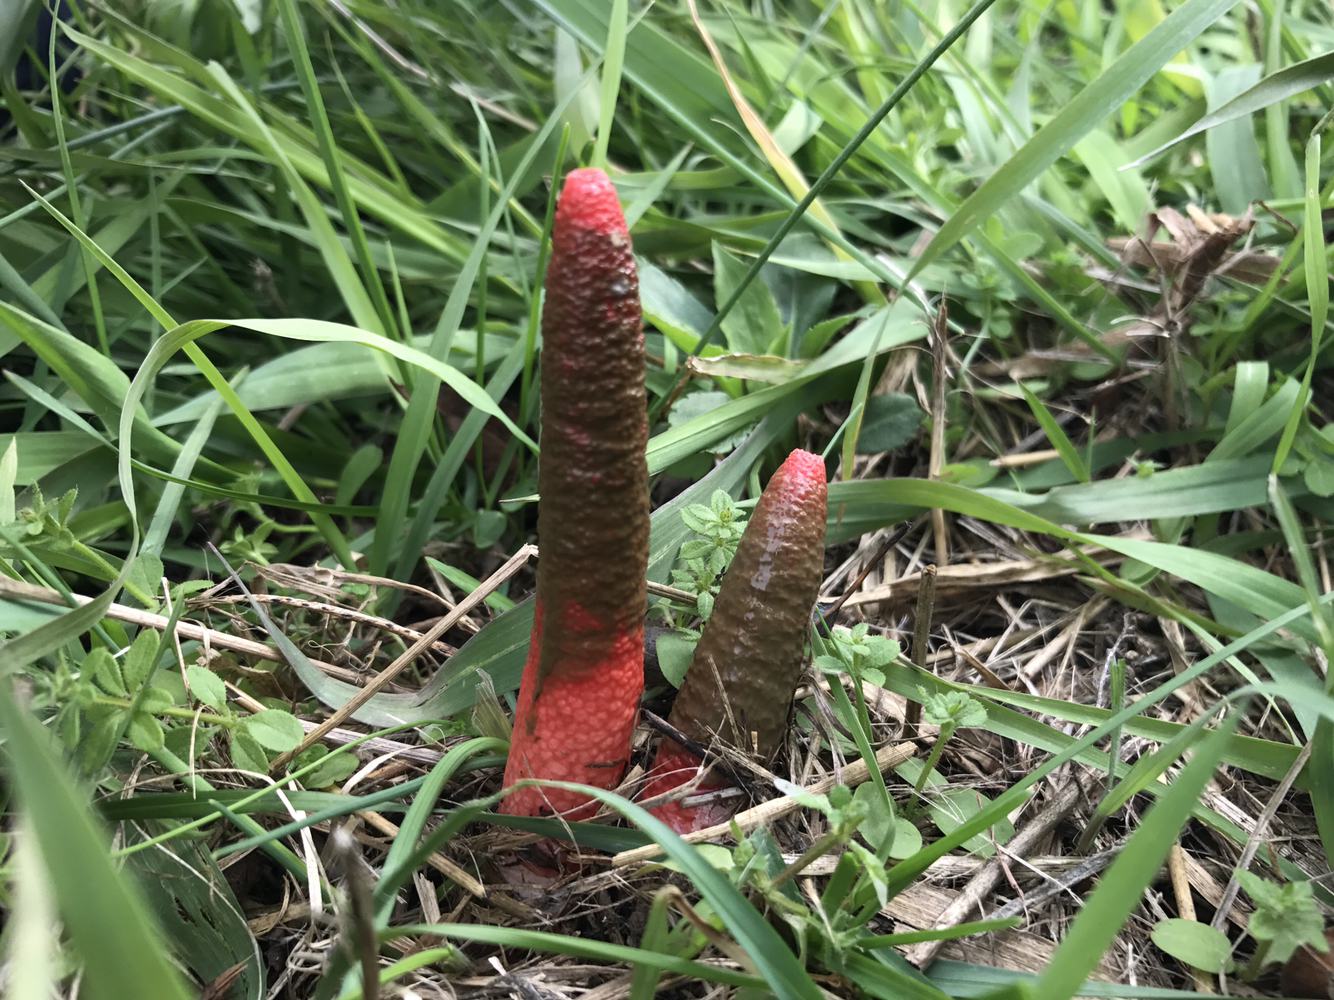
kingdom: Fungi
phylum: Basidiomycota
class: Agaricomycetes
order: Phallales
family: Phallaceae
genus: Mutinus
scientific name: Mutinus elegans
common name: Devil's dipstick
